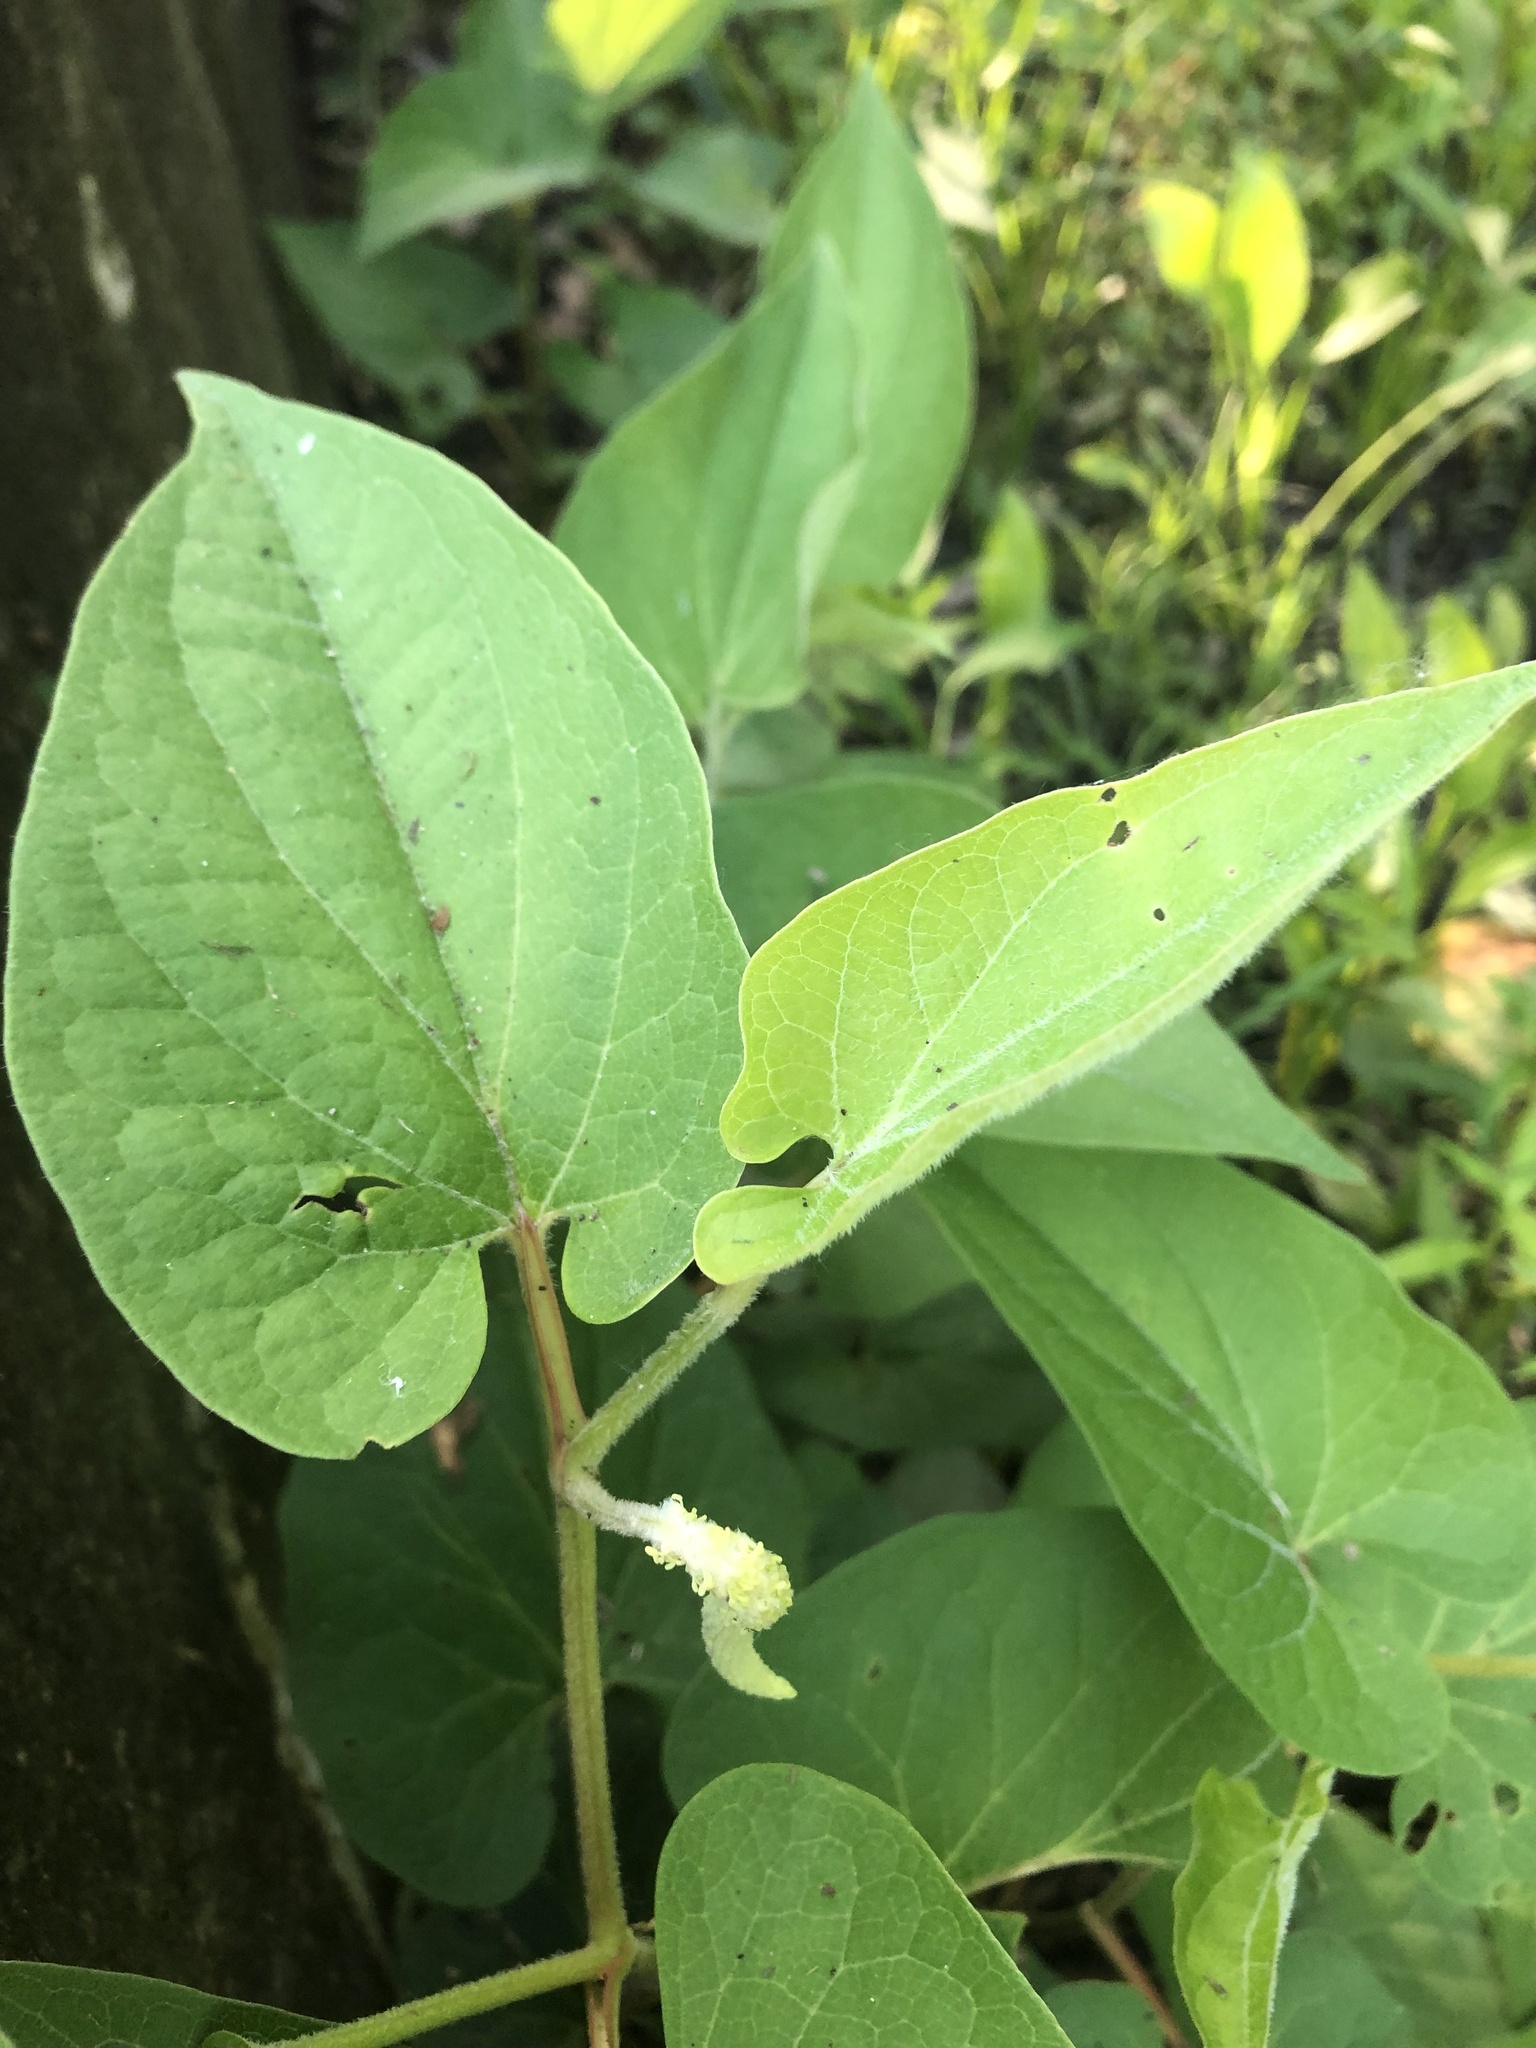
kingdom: Plantae
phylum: Tracheophyta
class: Magnoliopsida
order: Piperales
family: Saururaceae
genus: Saururus
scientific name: Saururus cernuus
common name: Lizard's-tail
